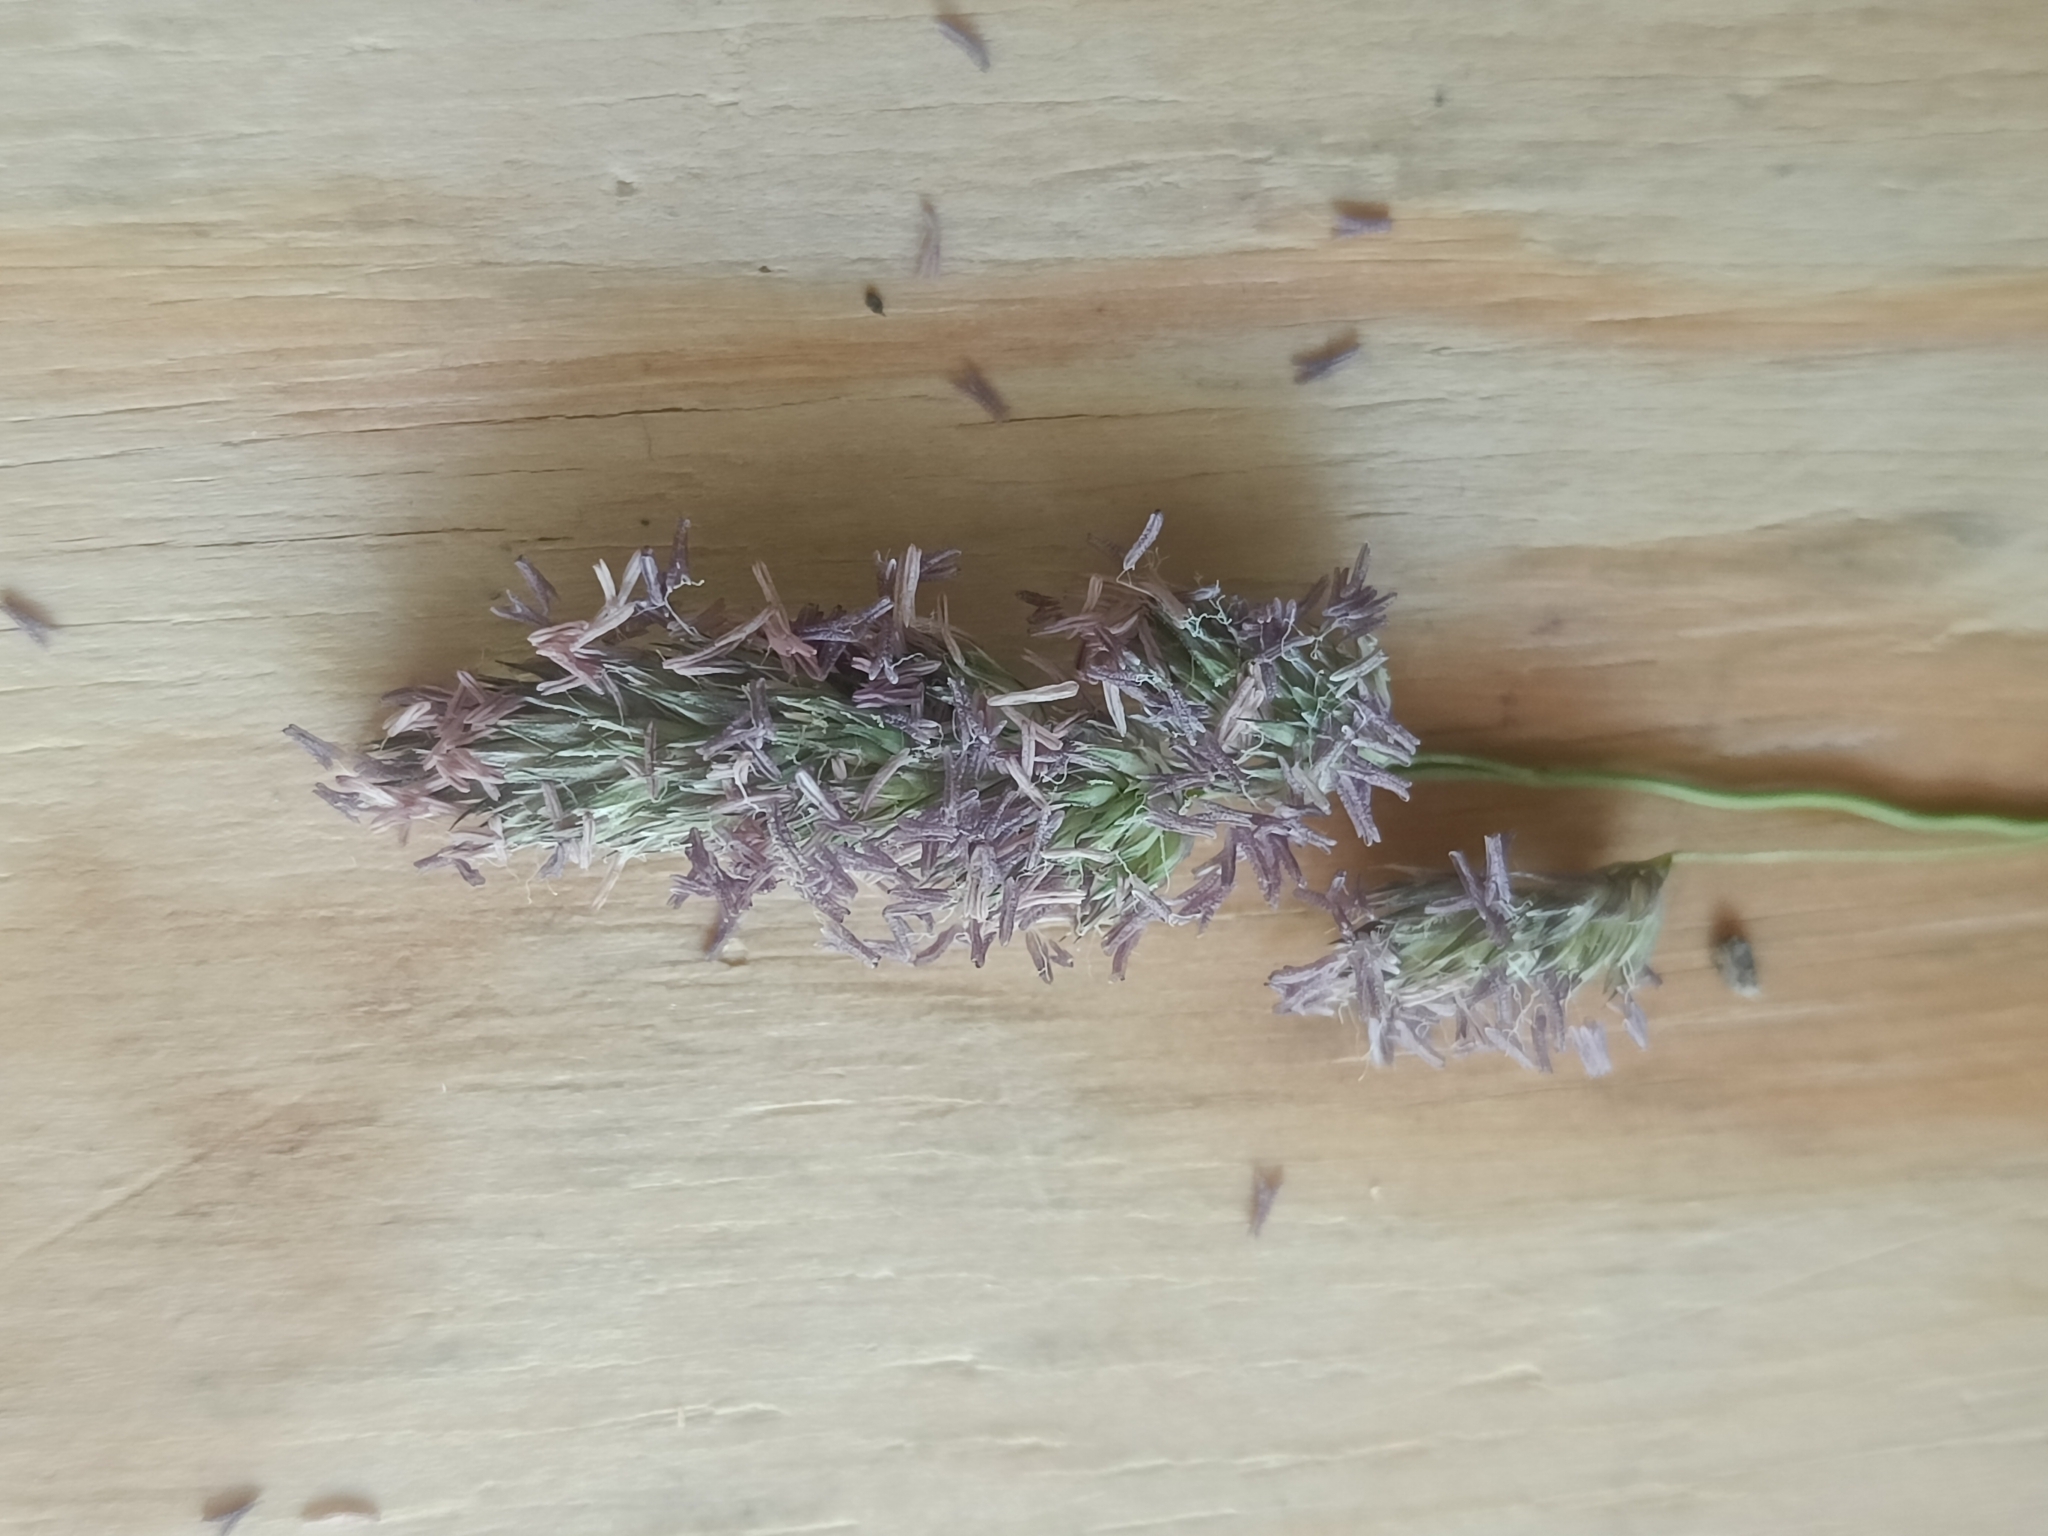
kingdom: Plantae
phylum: Tracheophyta
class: Liliopsida
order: Poales
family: Poaceae
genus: Dactylis
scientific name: Dactylis glomerata
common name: Orchardgrass
